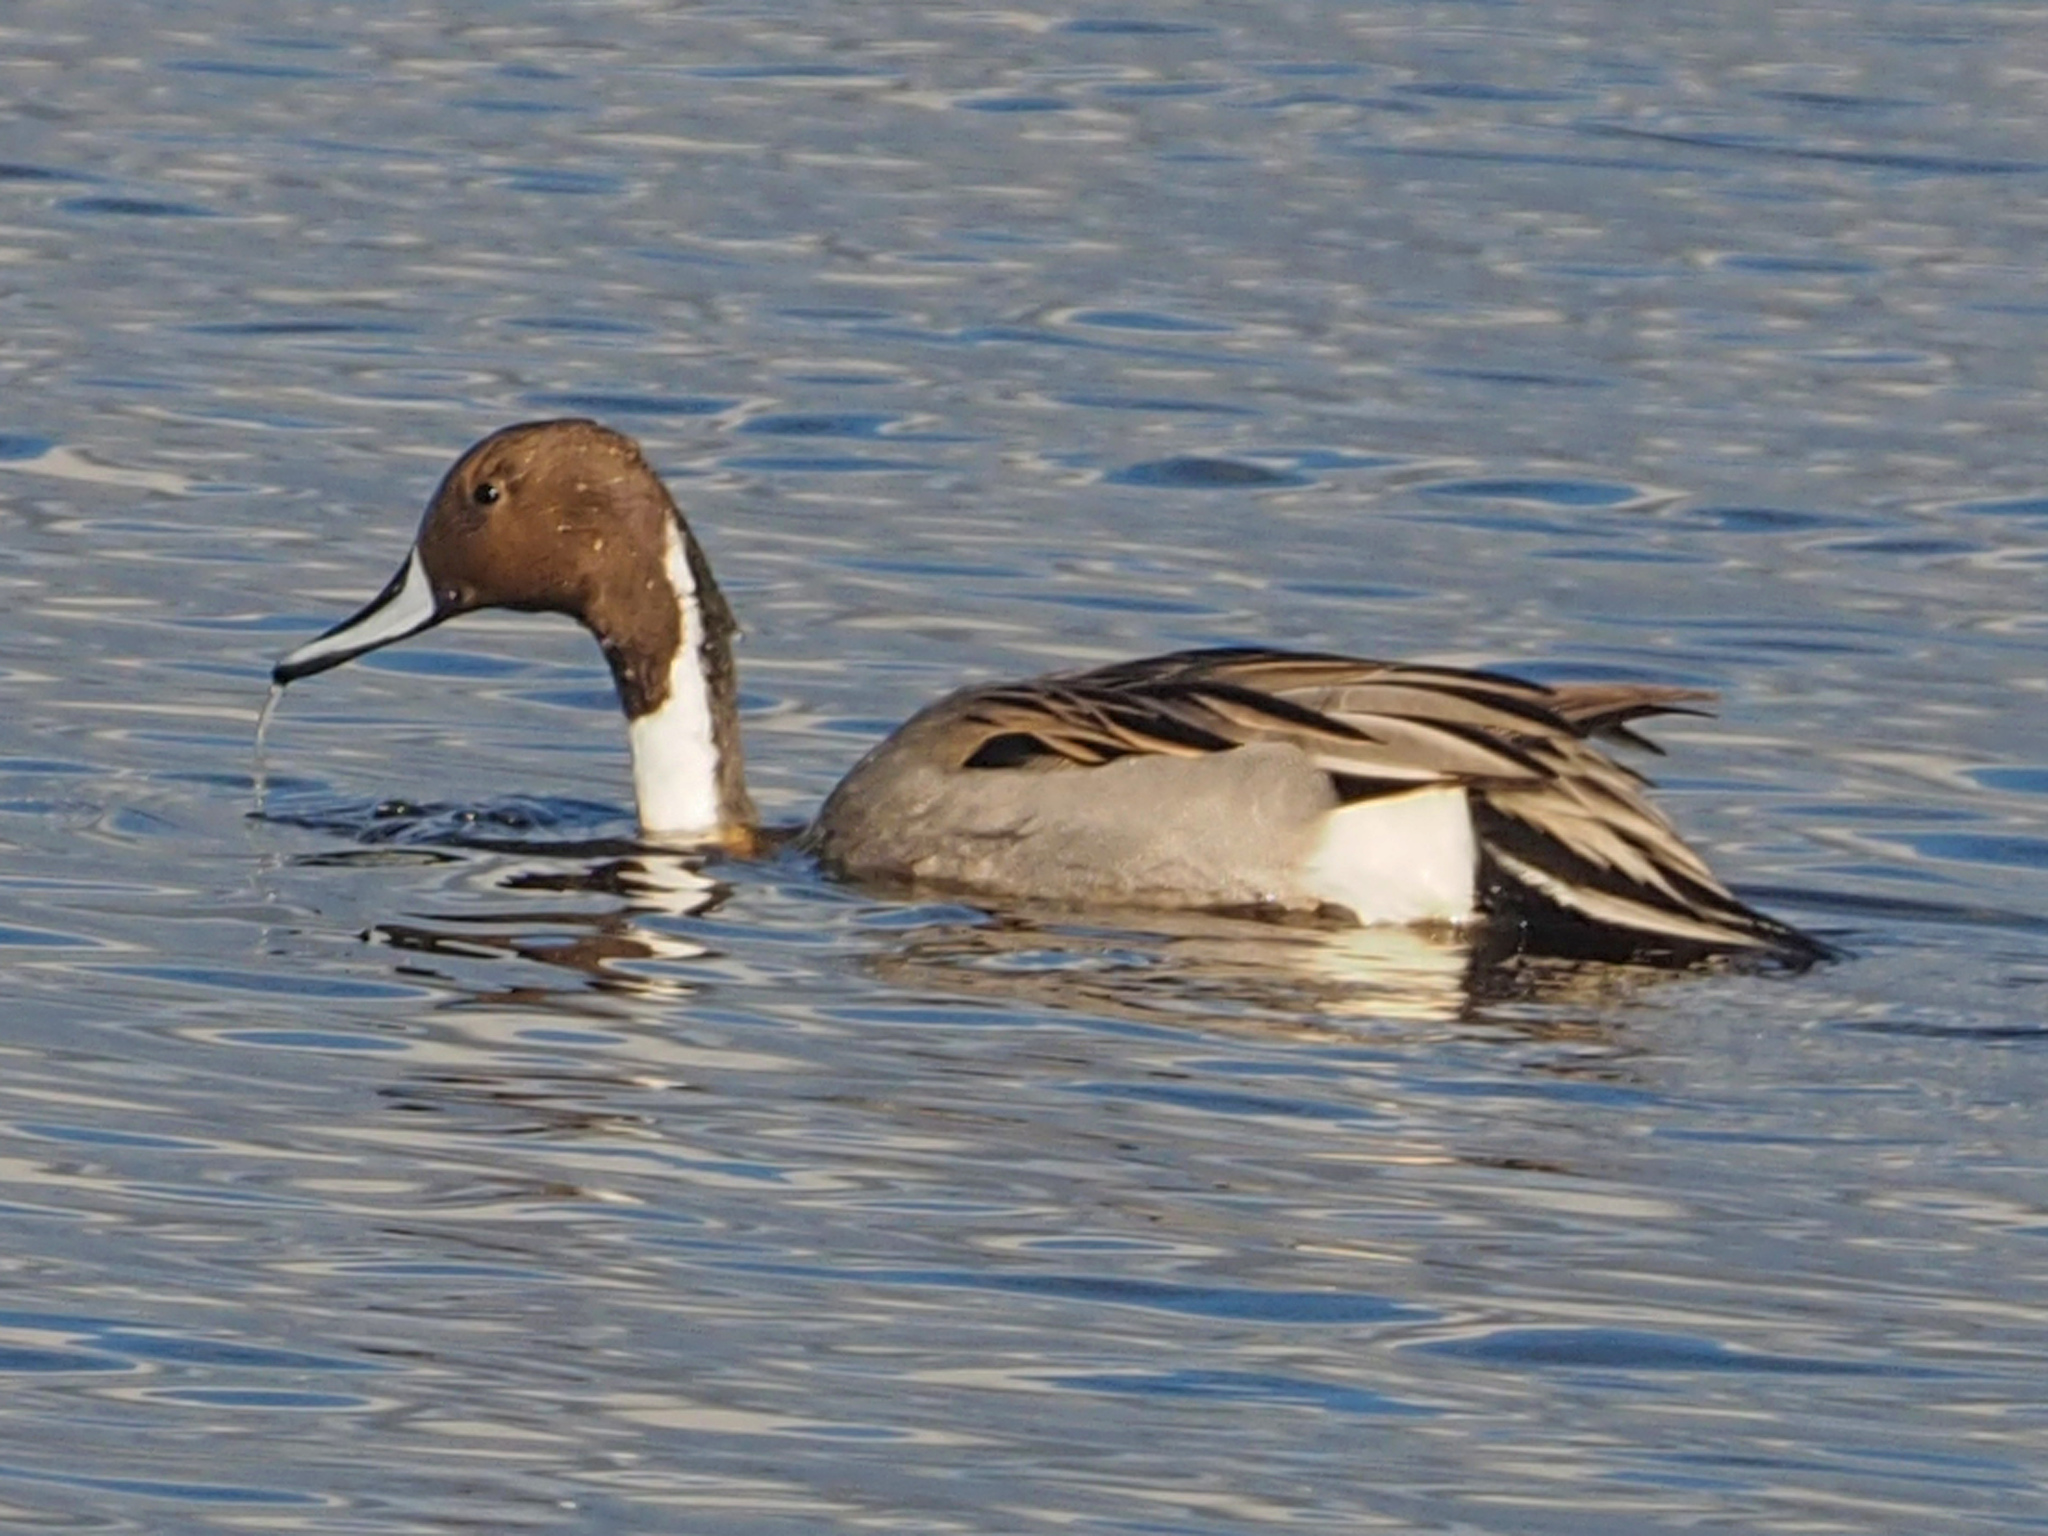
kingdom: Animalia
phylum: Chordata
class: Aves
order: Anseriformes
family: Anatidae
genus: Anas
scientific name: Anas acuta
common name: Northern pintail
